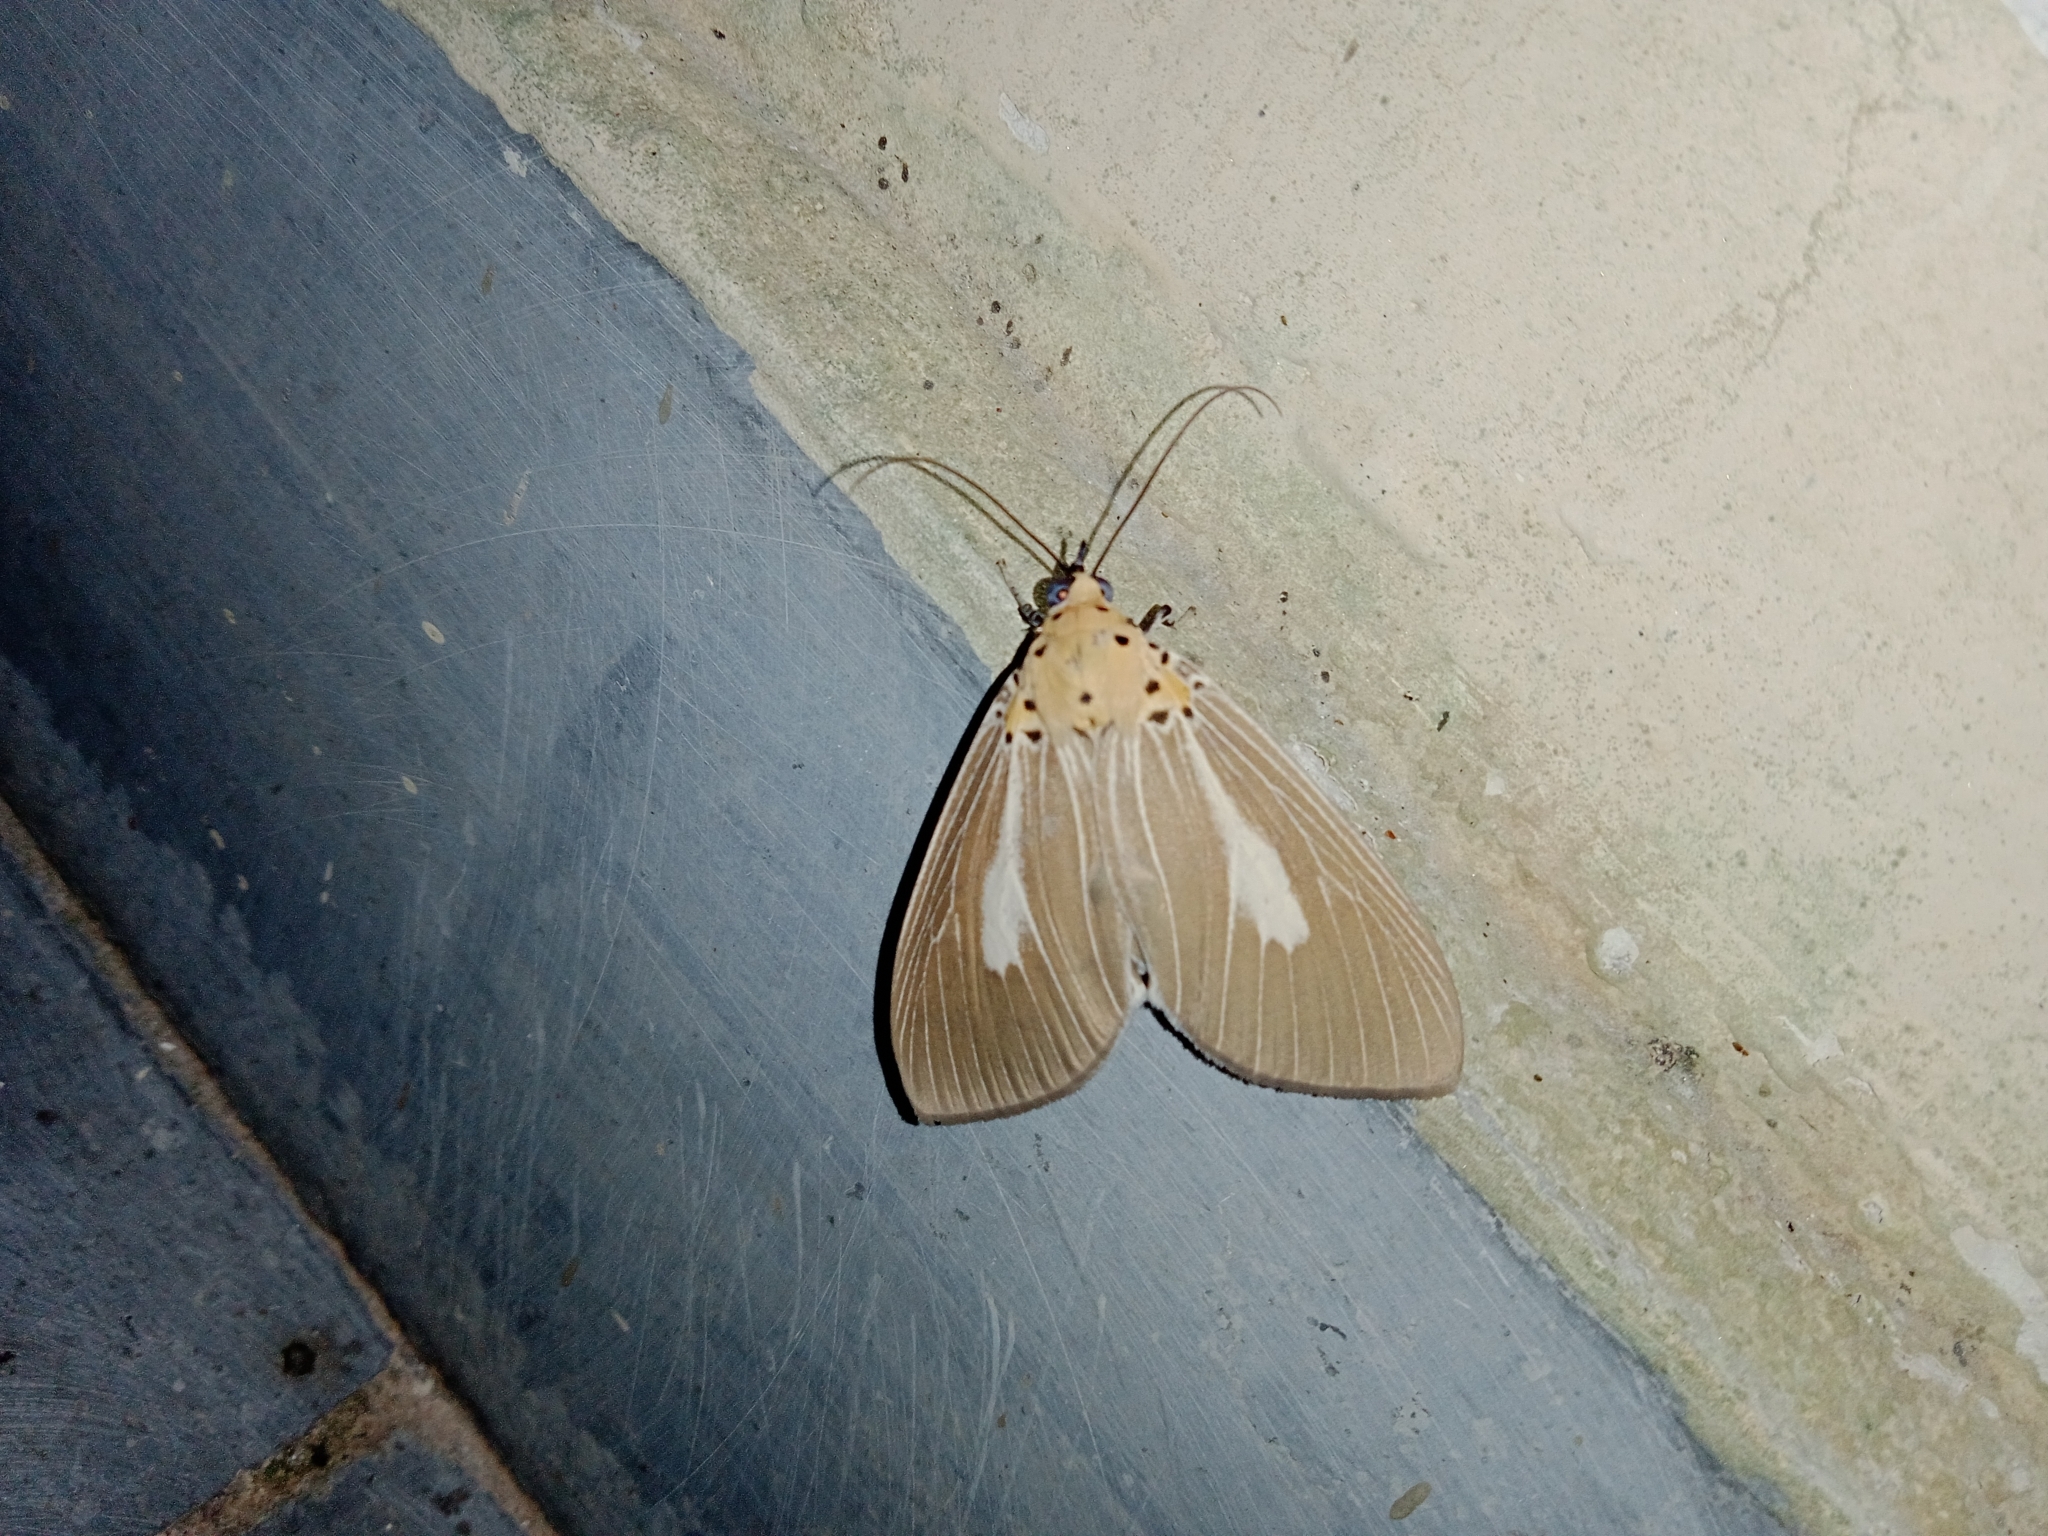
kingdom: Animalia
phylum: Arthropoda
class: Insecta
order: Lepidoptera
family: Erebidae
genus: Asota
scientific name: Asota heliconia
